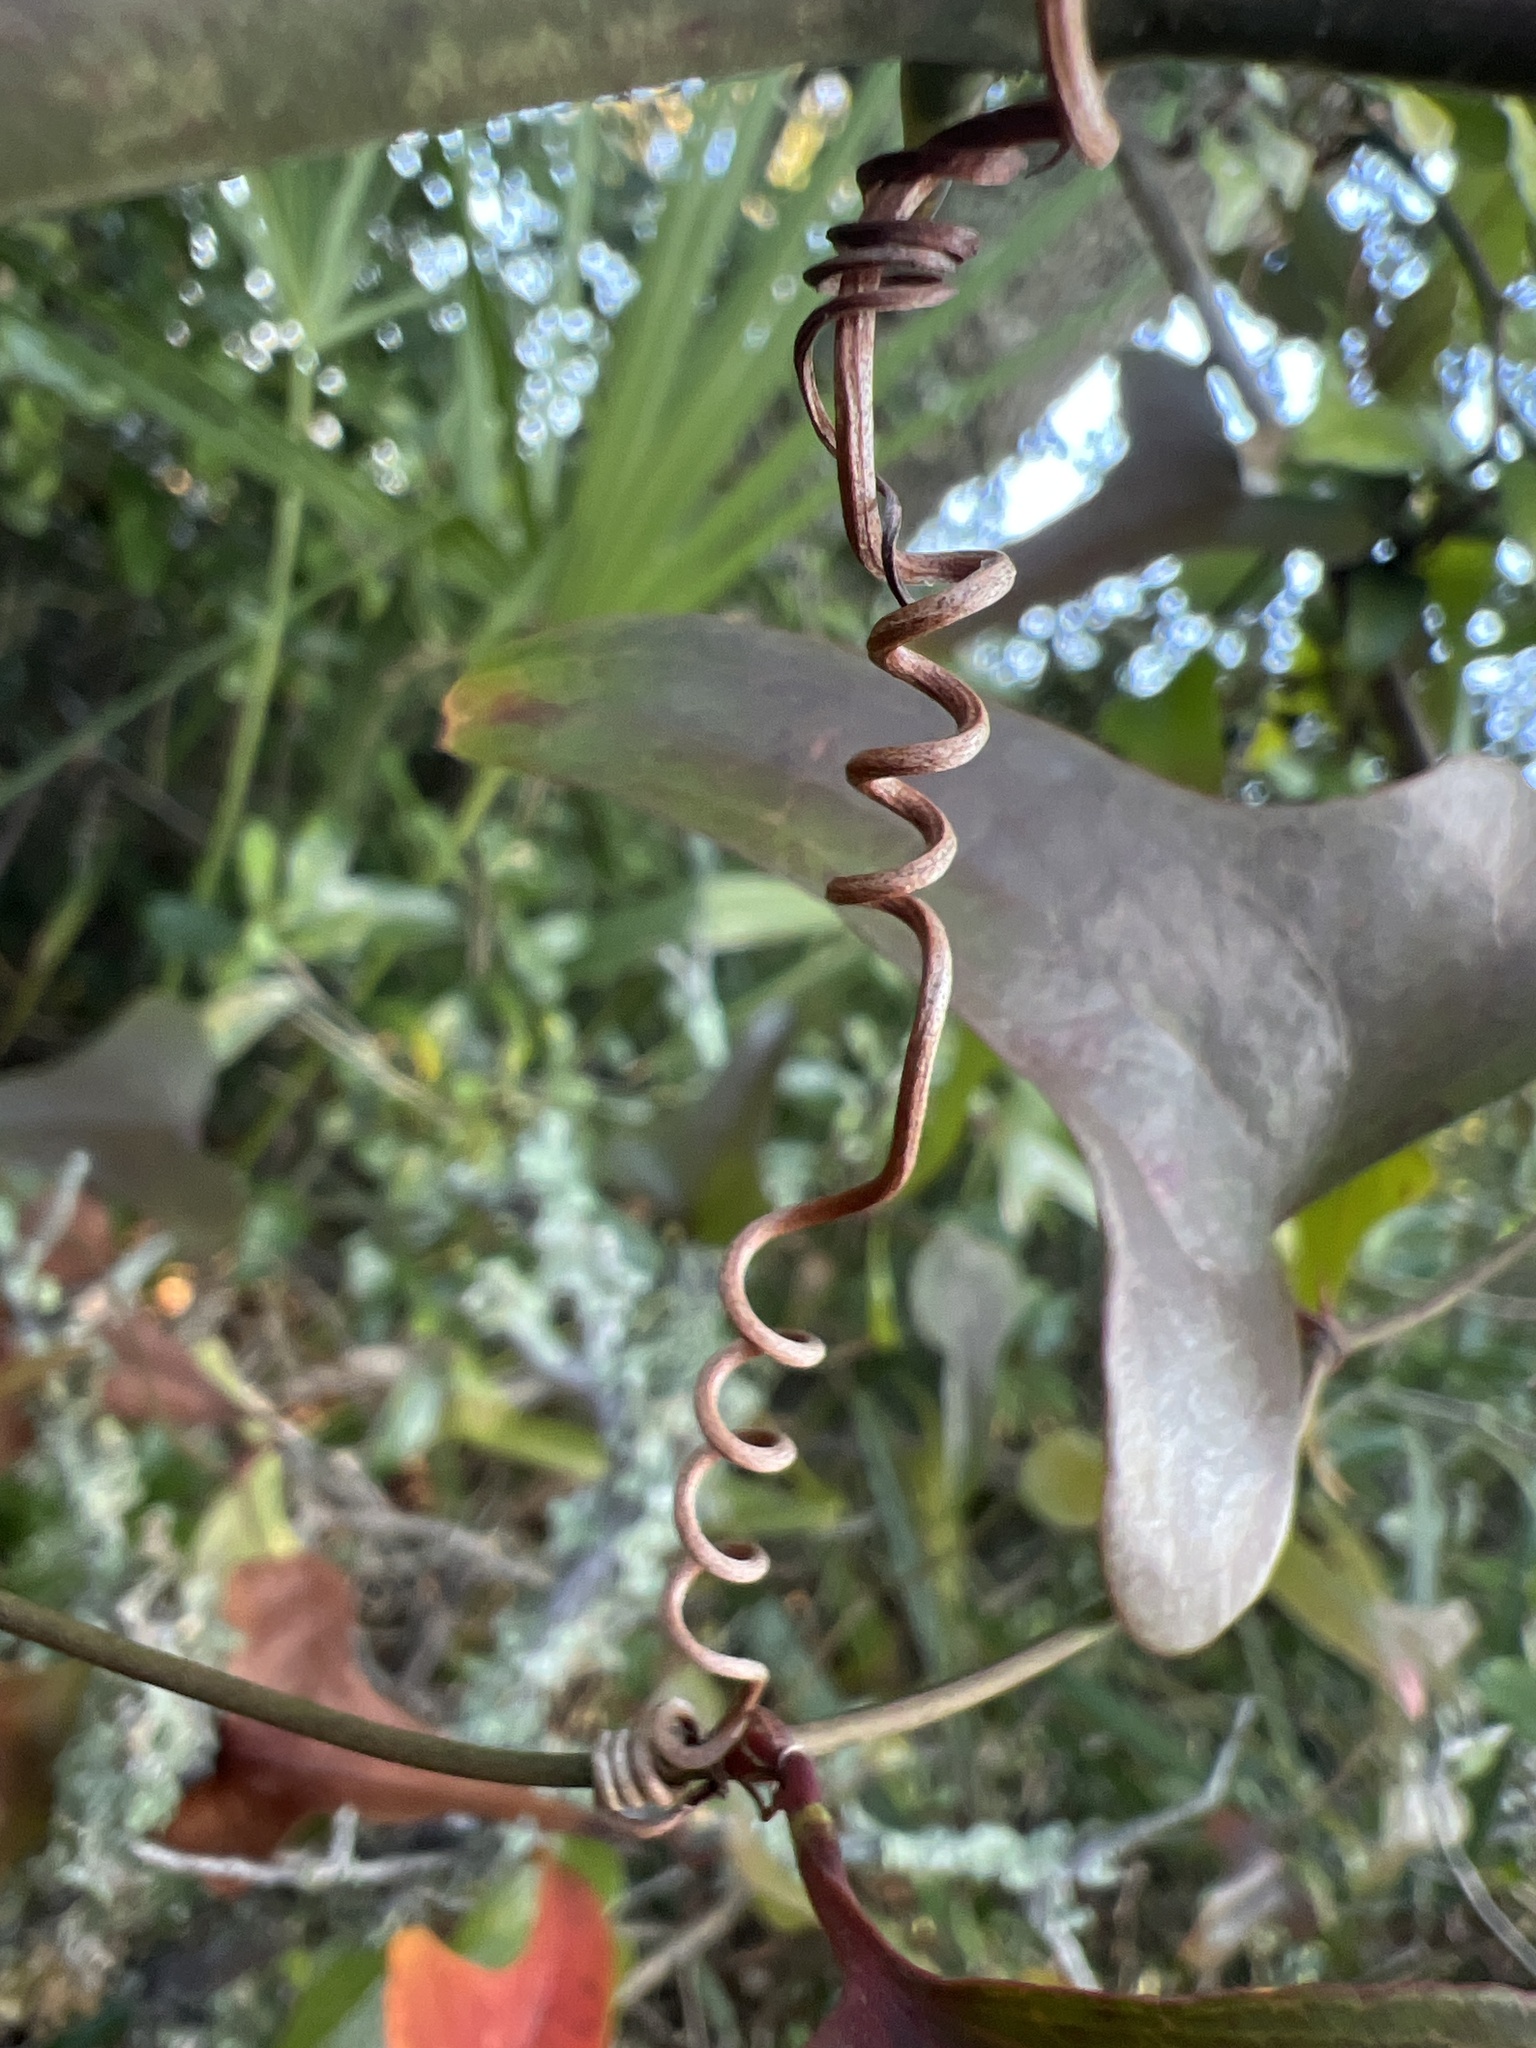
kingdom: Plantae
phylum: Tracheophyta
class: Liliopsida
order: Liliales
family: Smilacaceae
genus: Smilax
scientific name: Smilax bona-nox
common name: Catbrier
